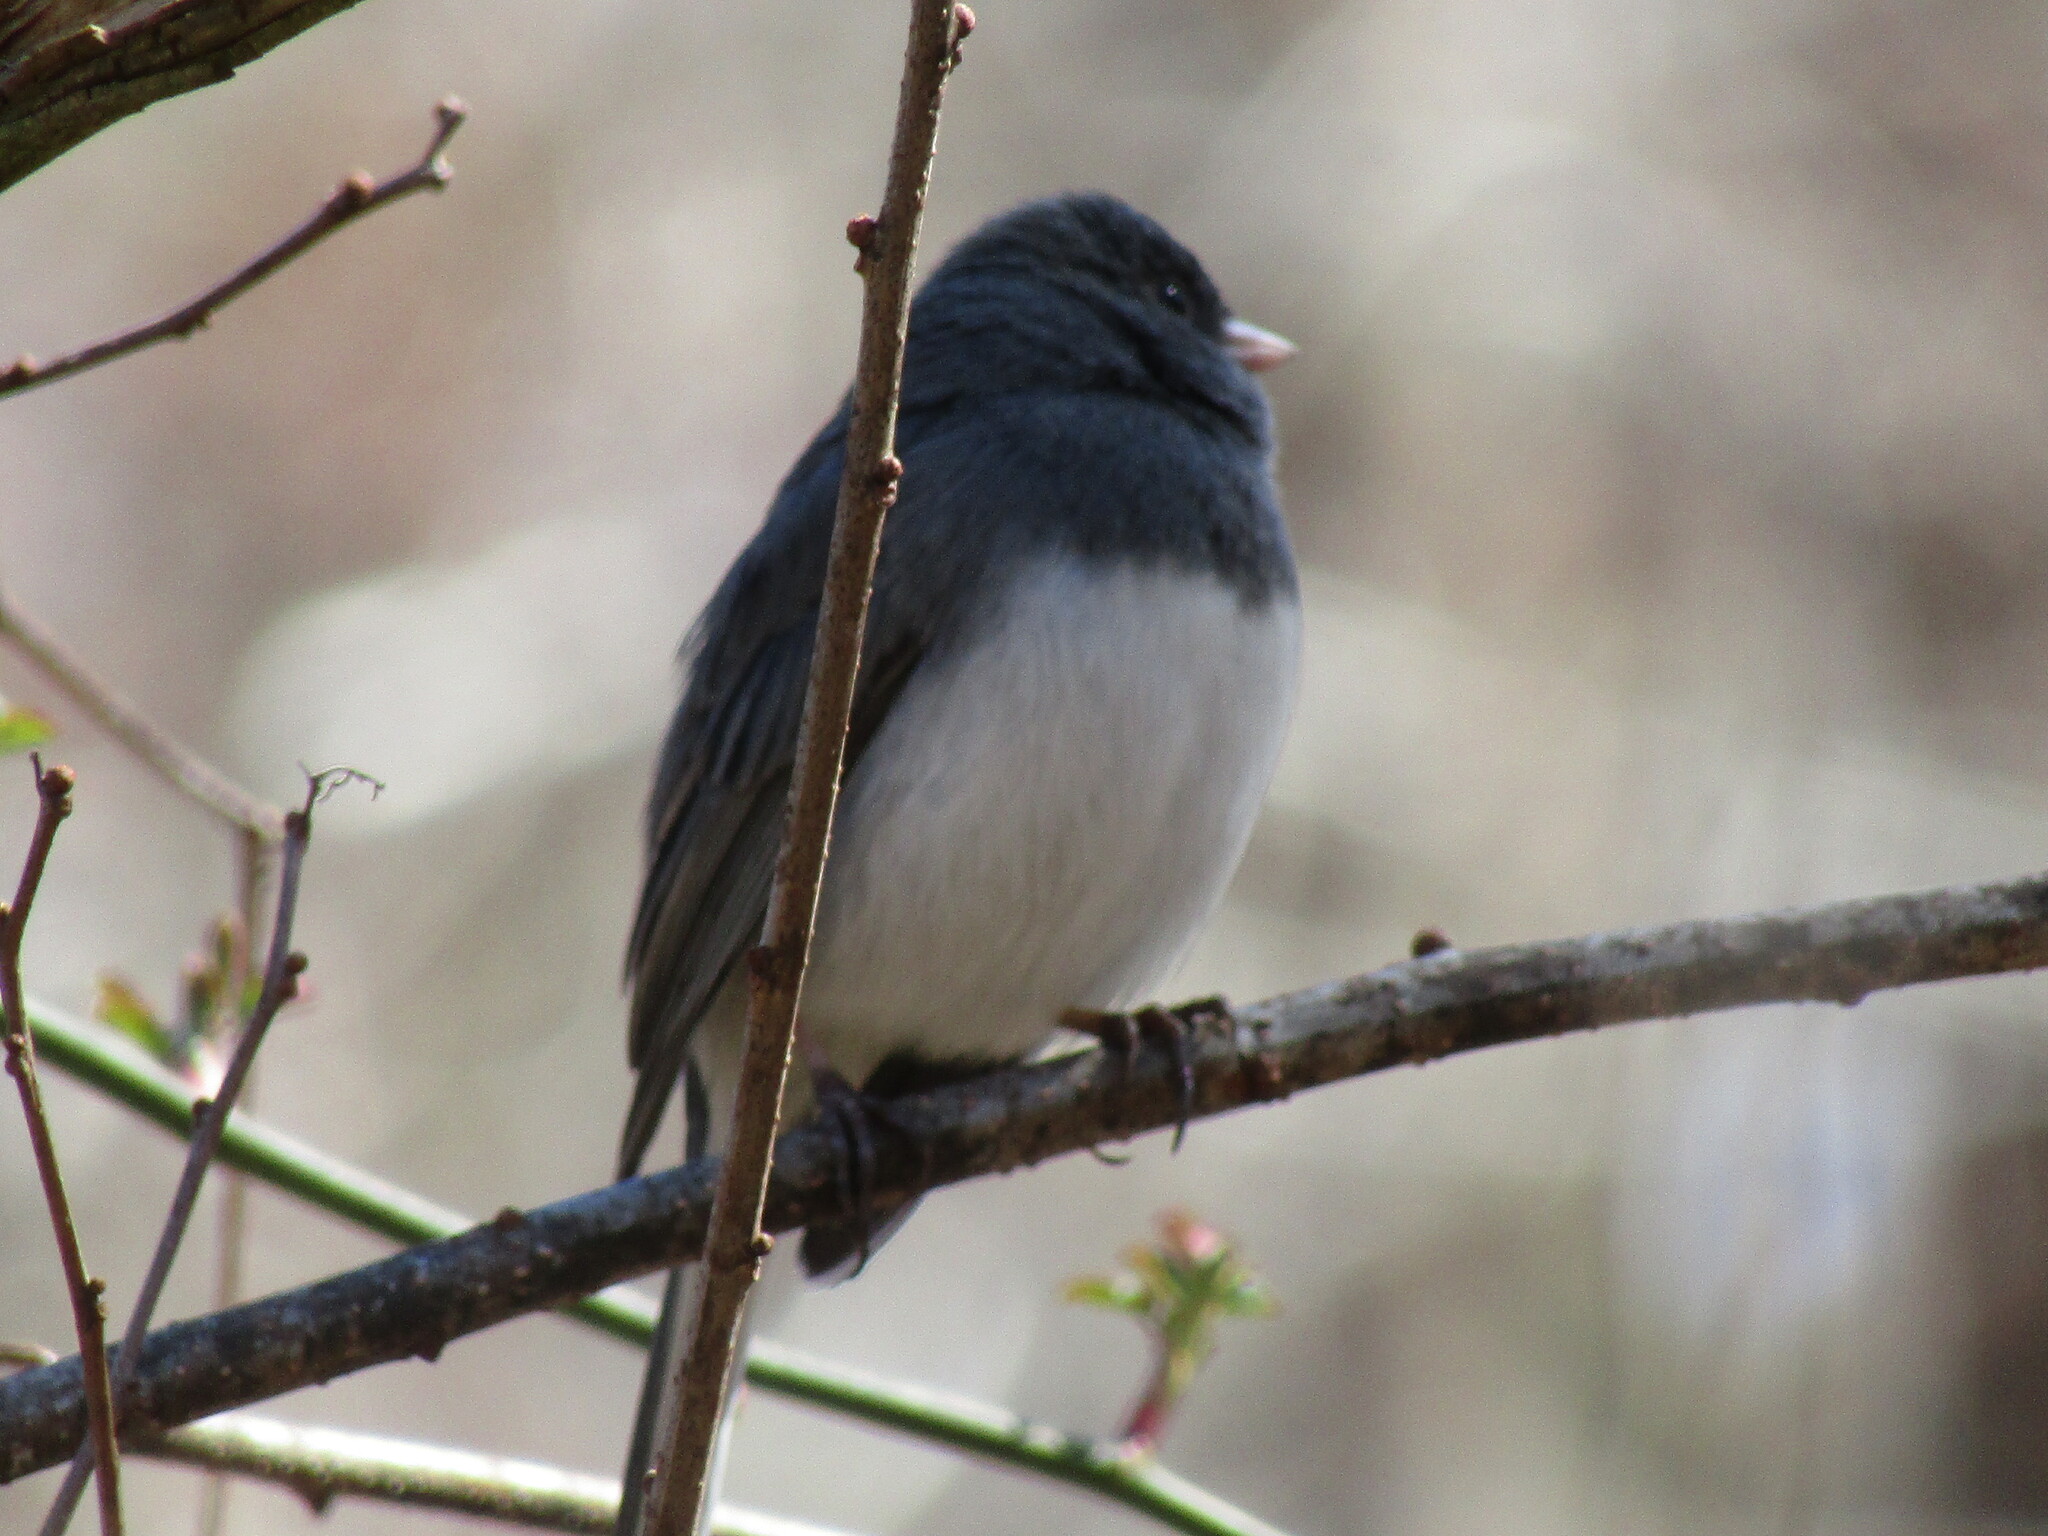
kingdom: Animalia
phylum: Chordata
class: Aves
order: Passeriformes
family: Passerellidae
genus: Junco
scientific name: Junco hyemalis
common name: Dark-eyed junco
